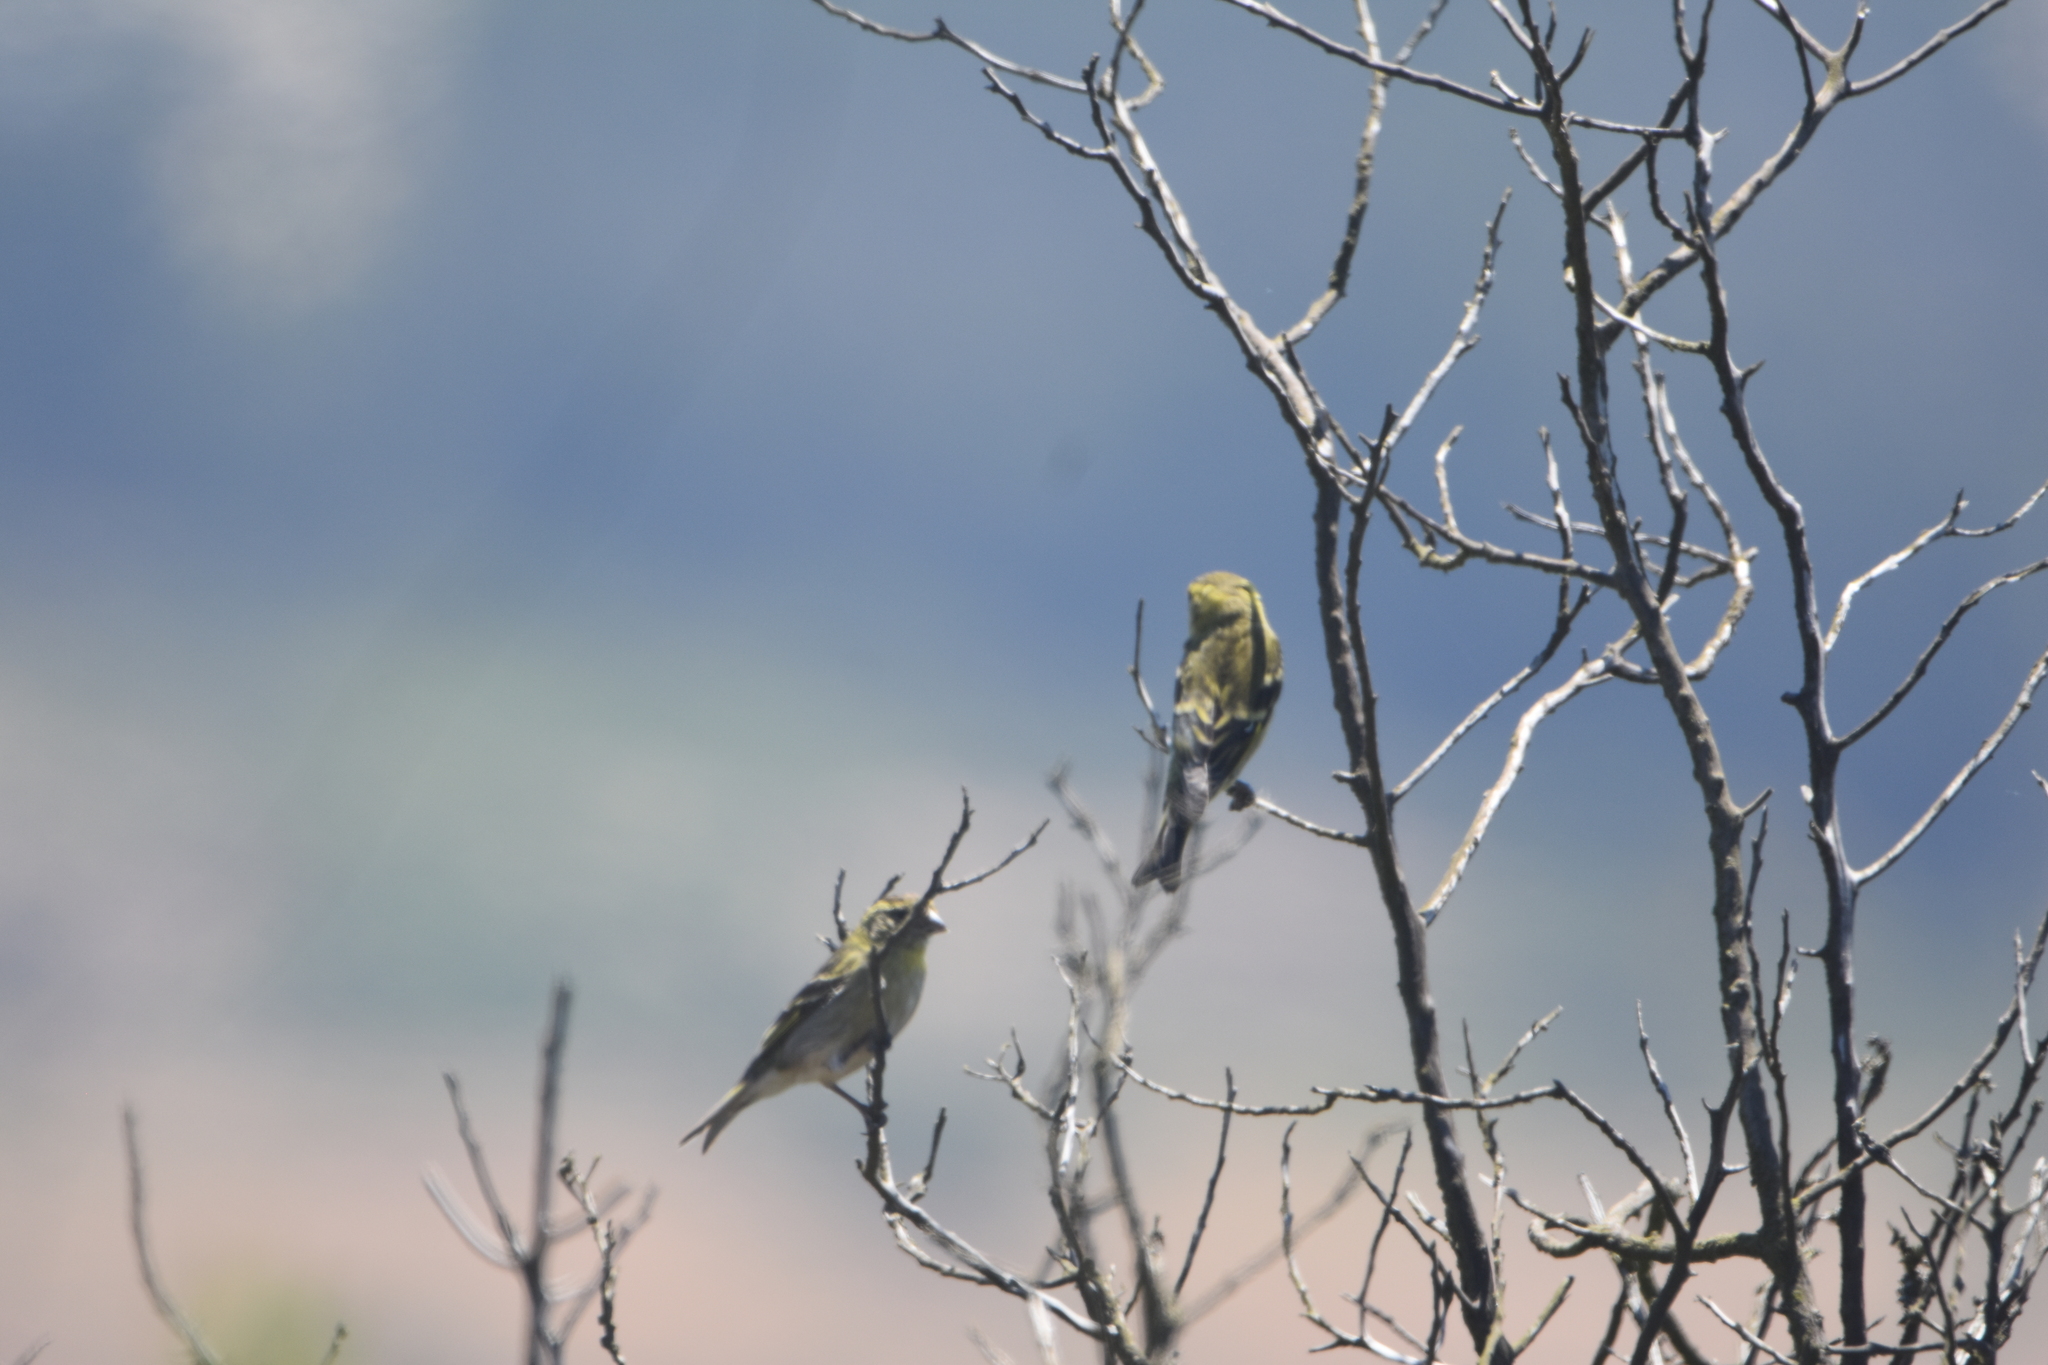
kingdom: Animalia
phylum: Chordata
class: Aves
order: Passeriformes
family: Fringillidae
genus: Spinus
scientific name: Spinus barbatus
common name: Black-chinned siskin
